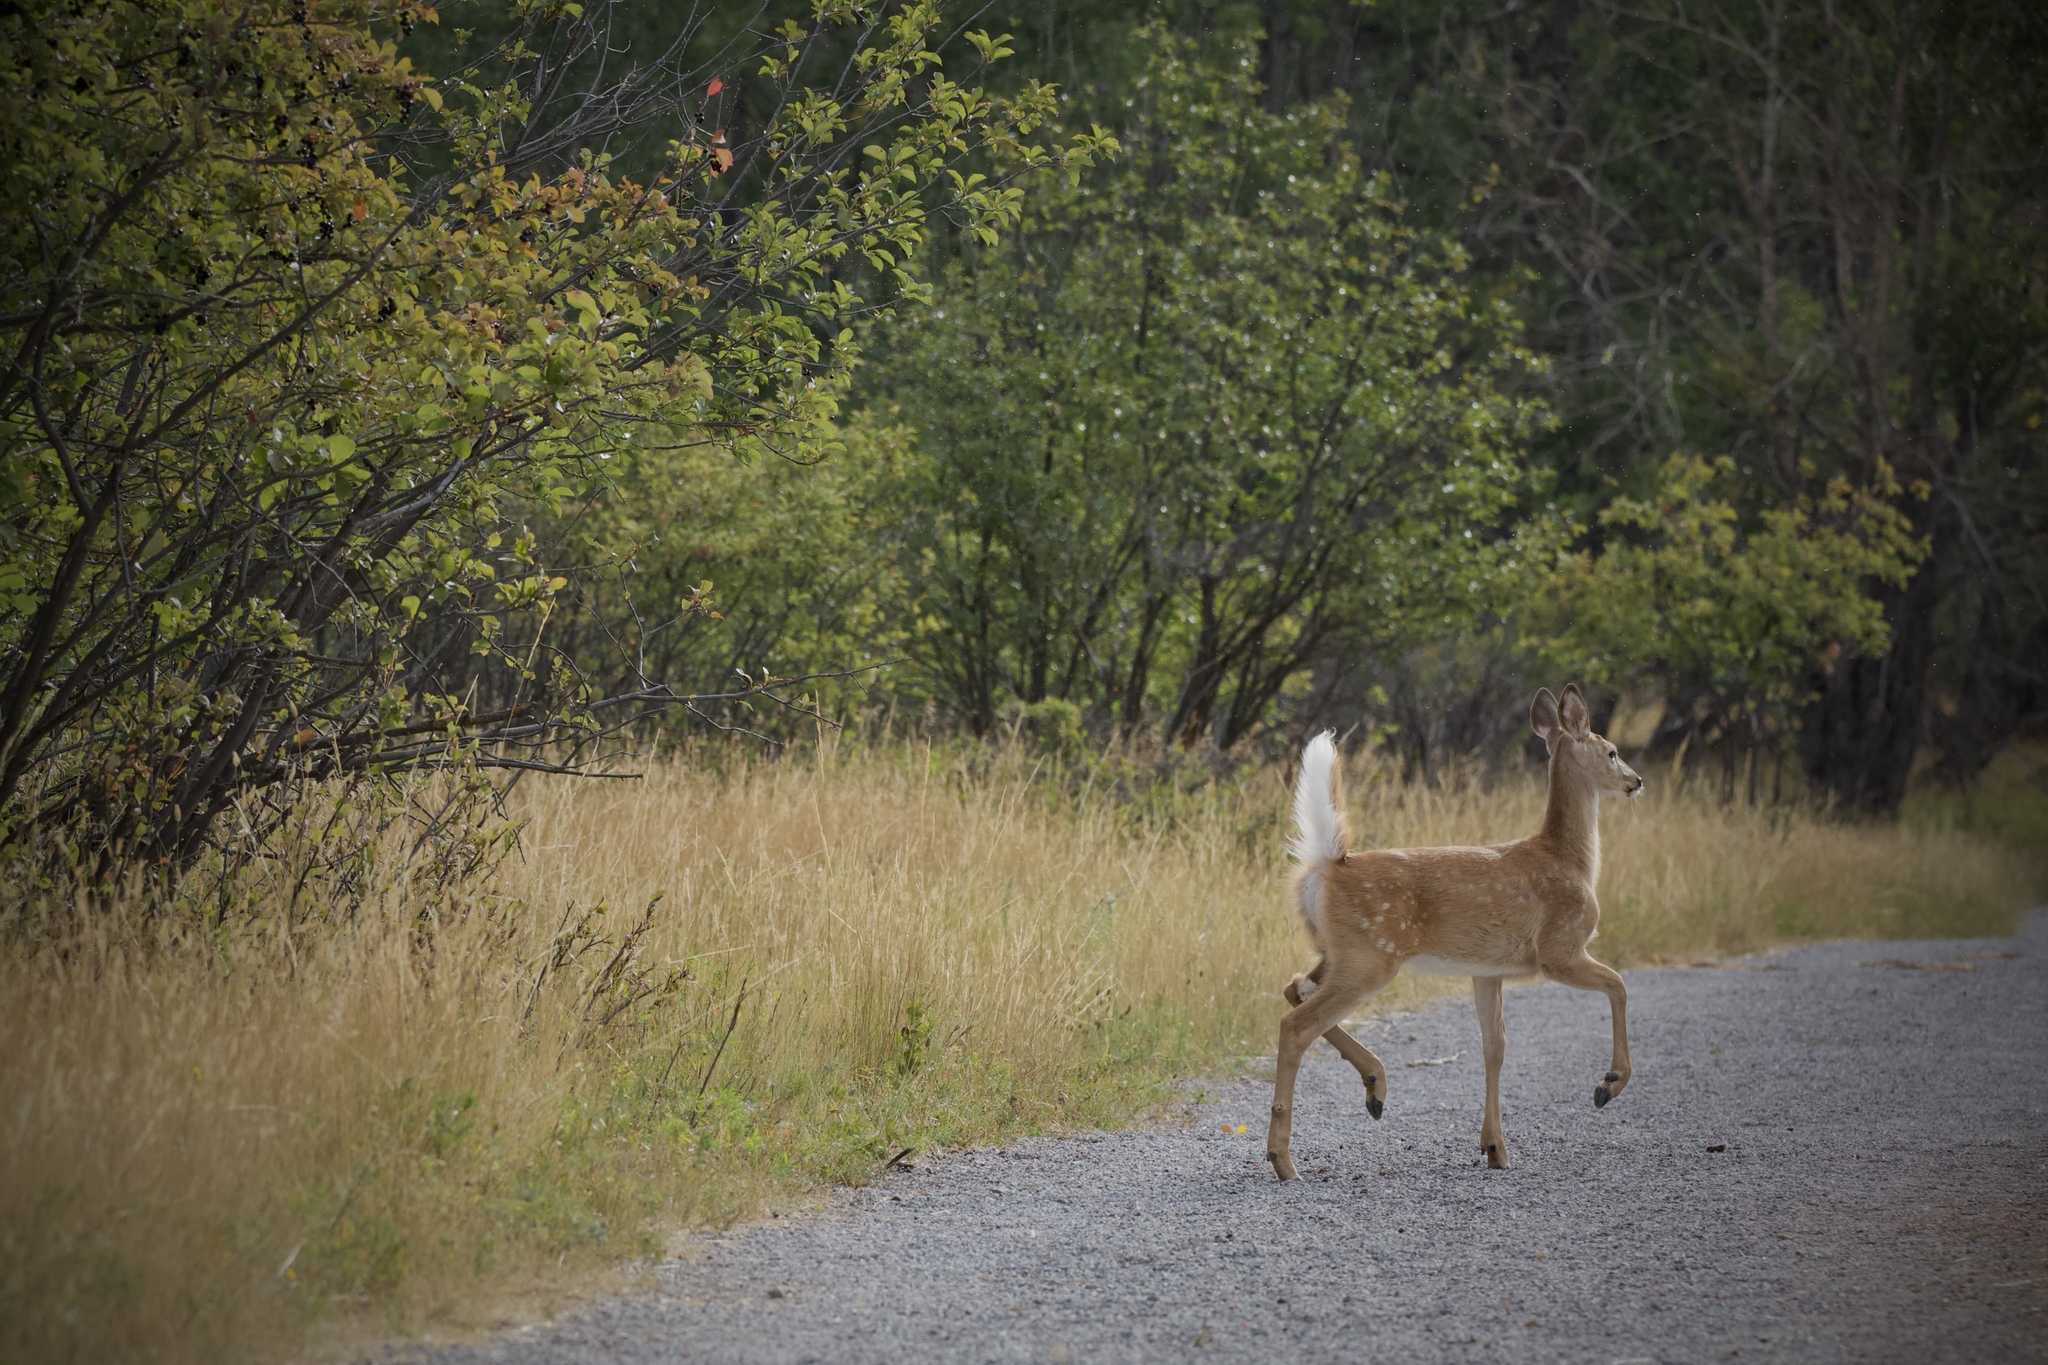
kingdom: Animalia
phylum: Chordata
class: Mammalia
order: Artiodactyla
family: Cervidae
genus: Odocoileus
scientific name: Odocoileus virginianus
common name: White-tailed deer
